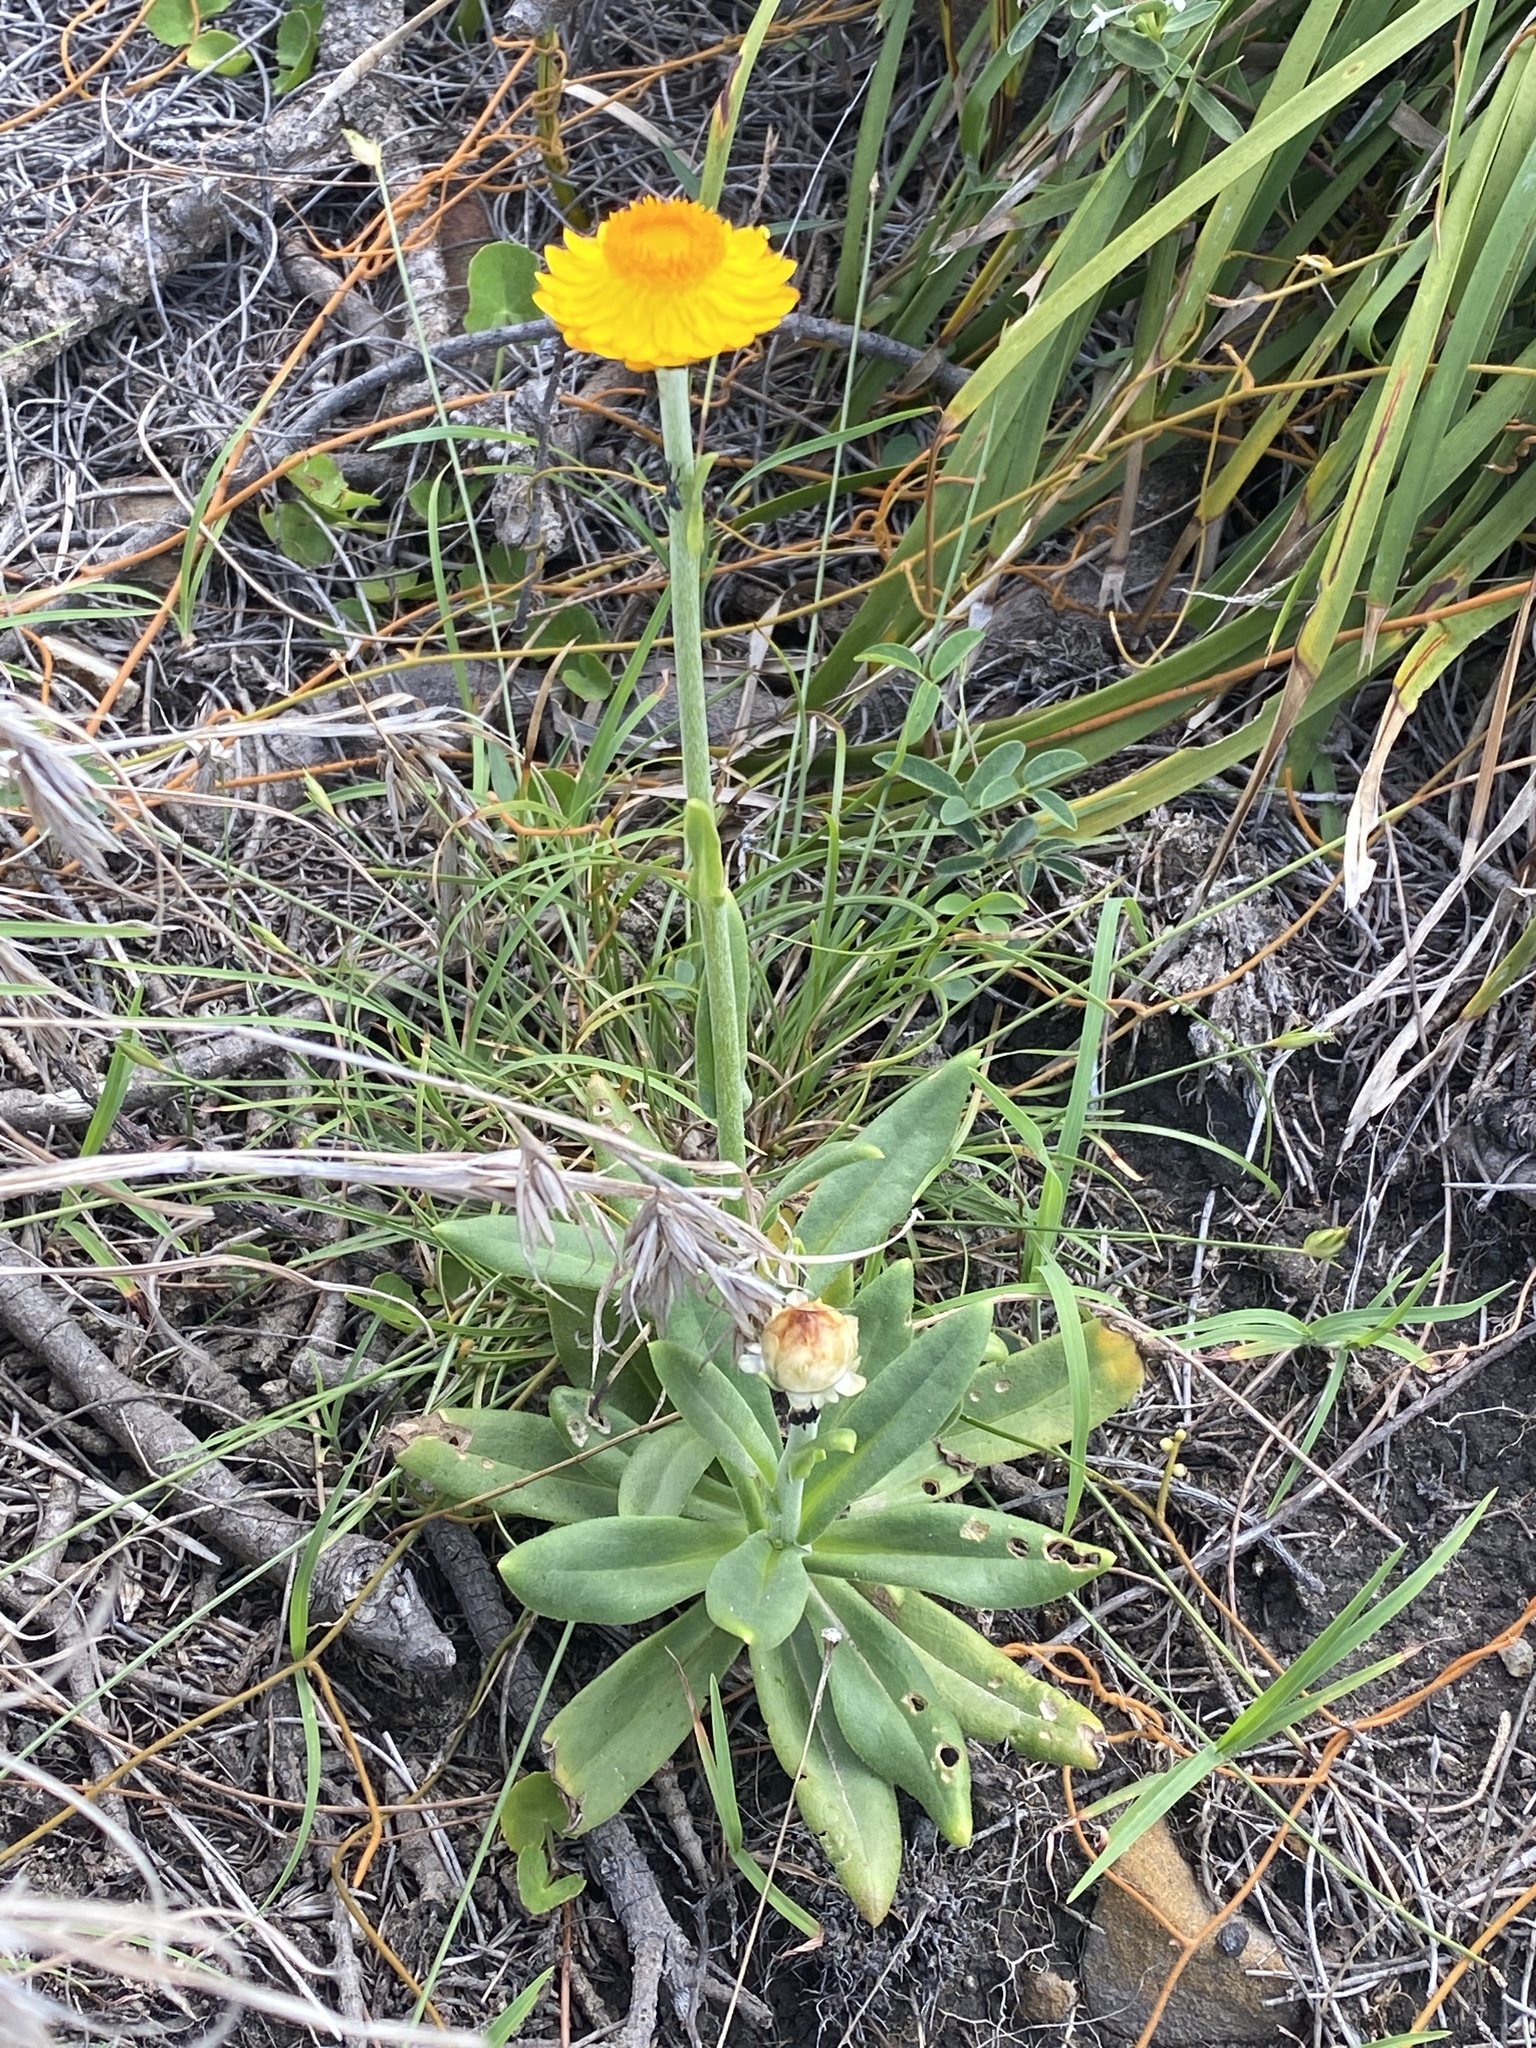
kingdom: Plantae
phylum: Tracheophyta
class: Magnoliopsida
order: Asterales
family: Asteraceae
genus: Xerochrysum
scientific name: Xerochrysum bracteatum
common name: Bracted strawflower
